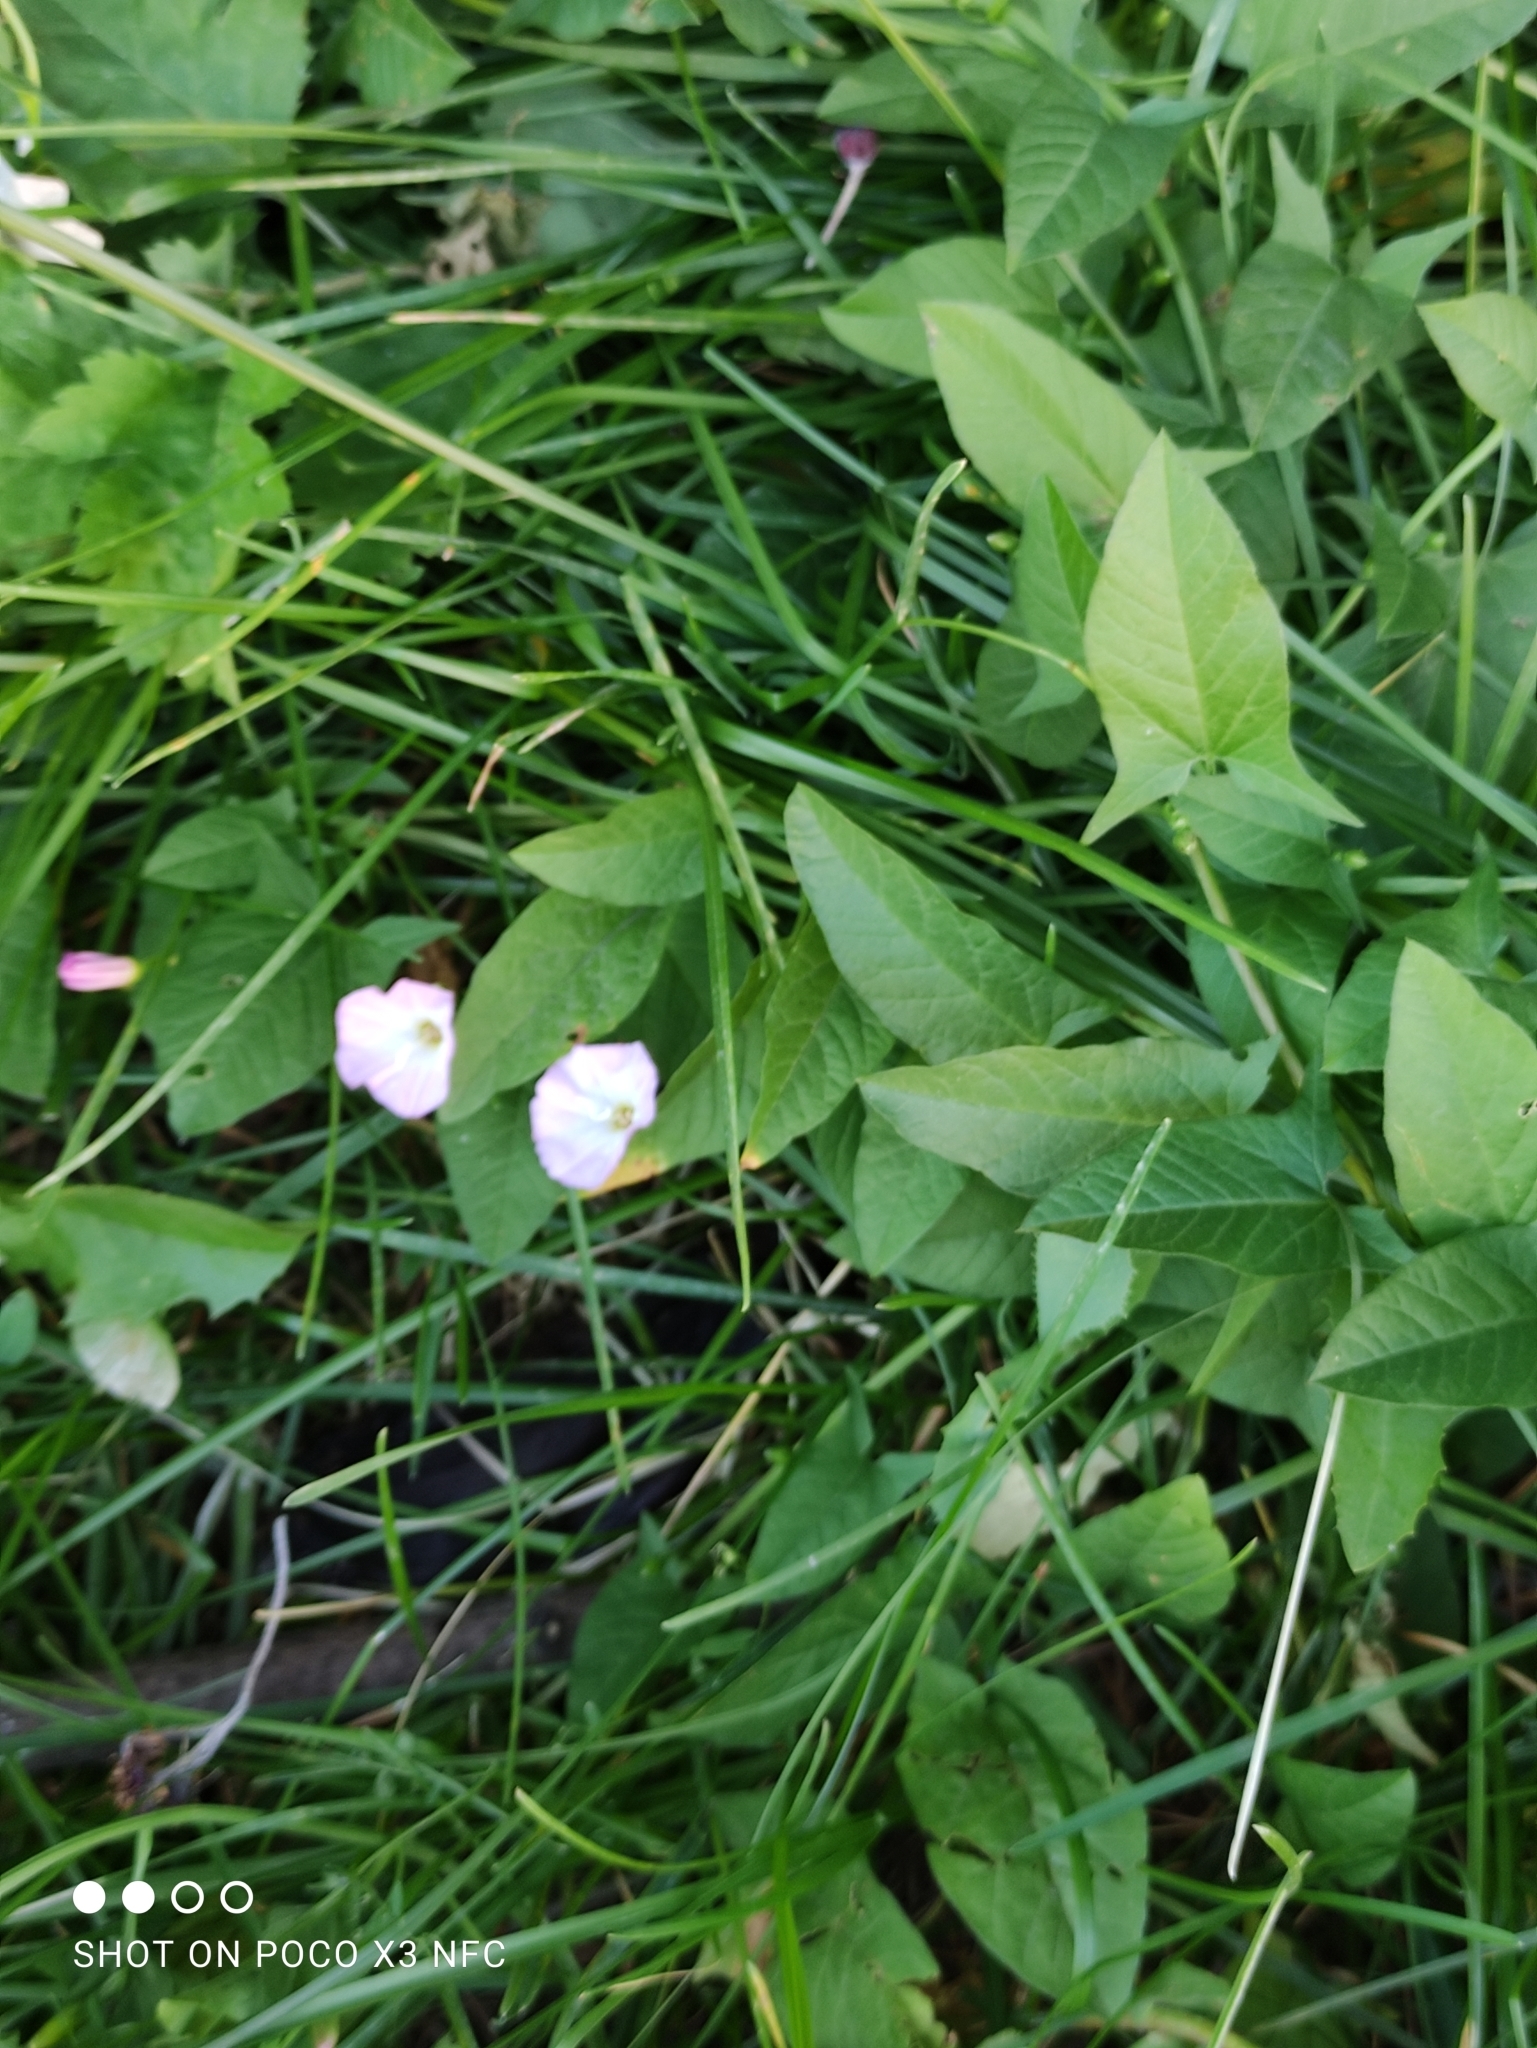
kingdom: Plantae
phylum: Tracheophyta
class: Magnoliopsida
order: Solanales
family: Convolvulaceae
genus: Convolvulus
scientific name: Convolvulus arvensis
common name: Field bindweed
